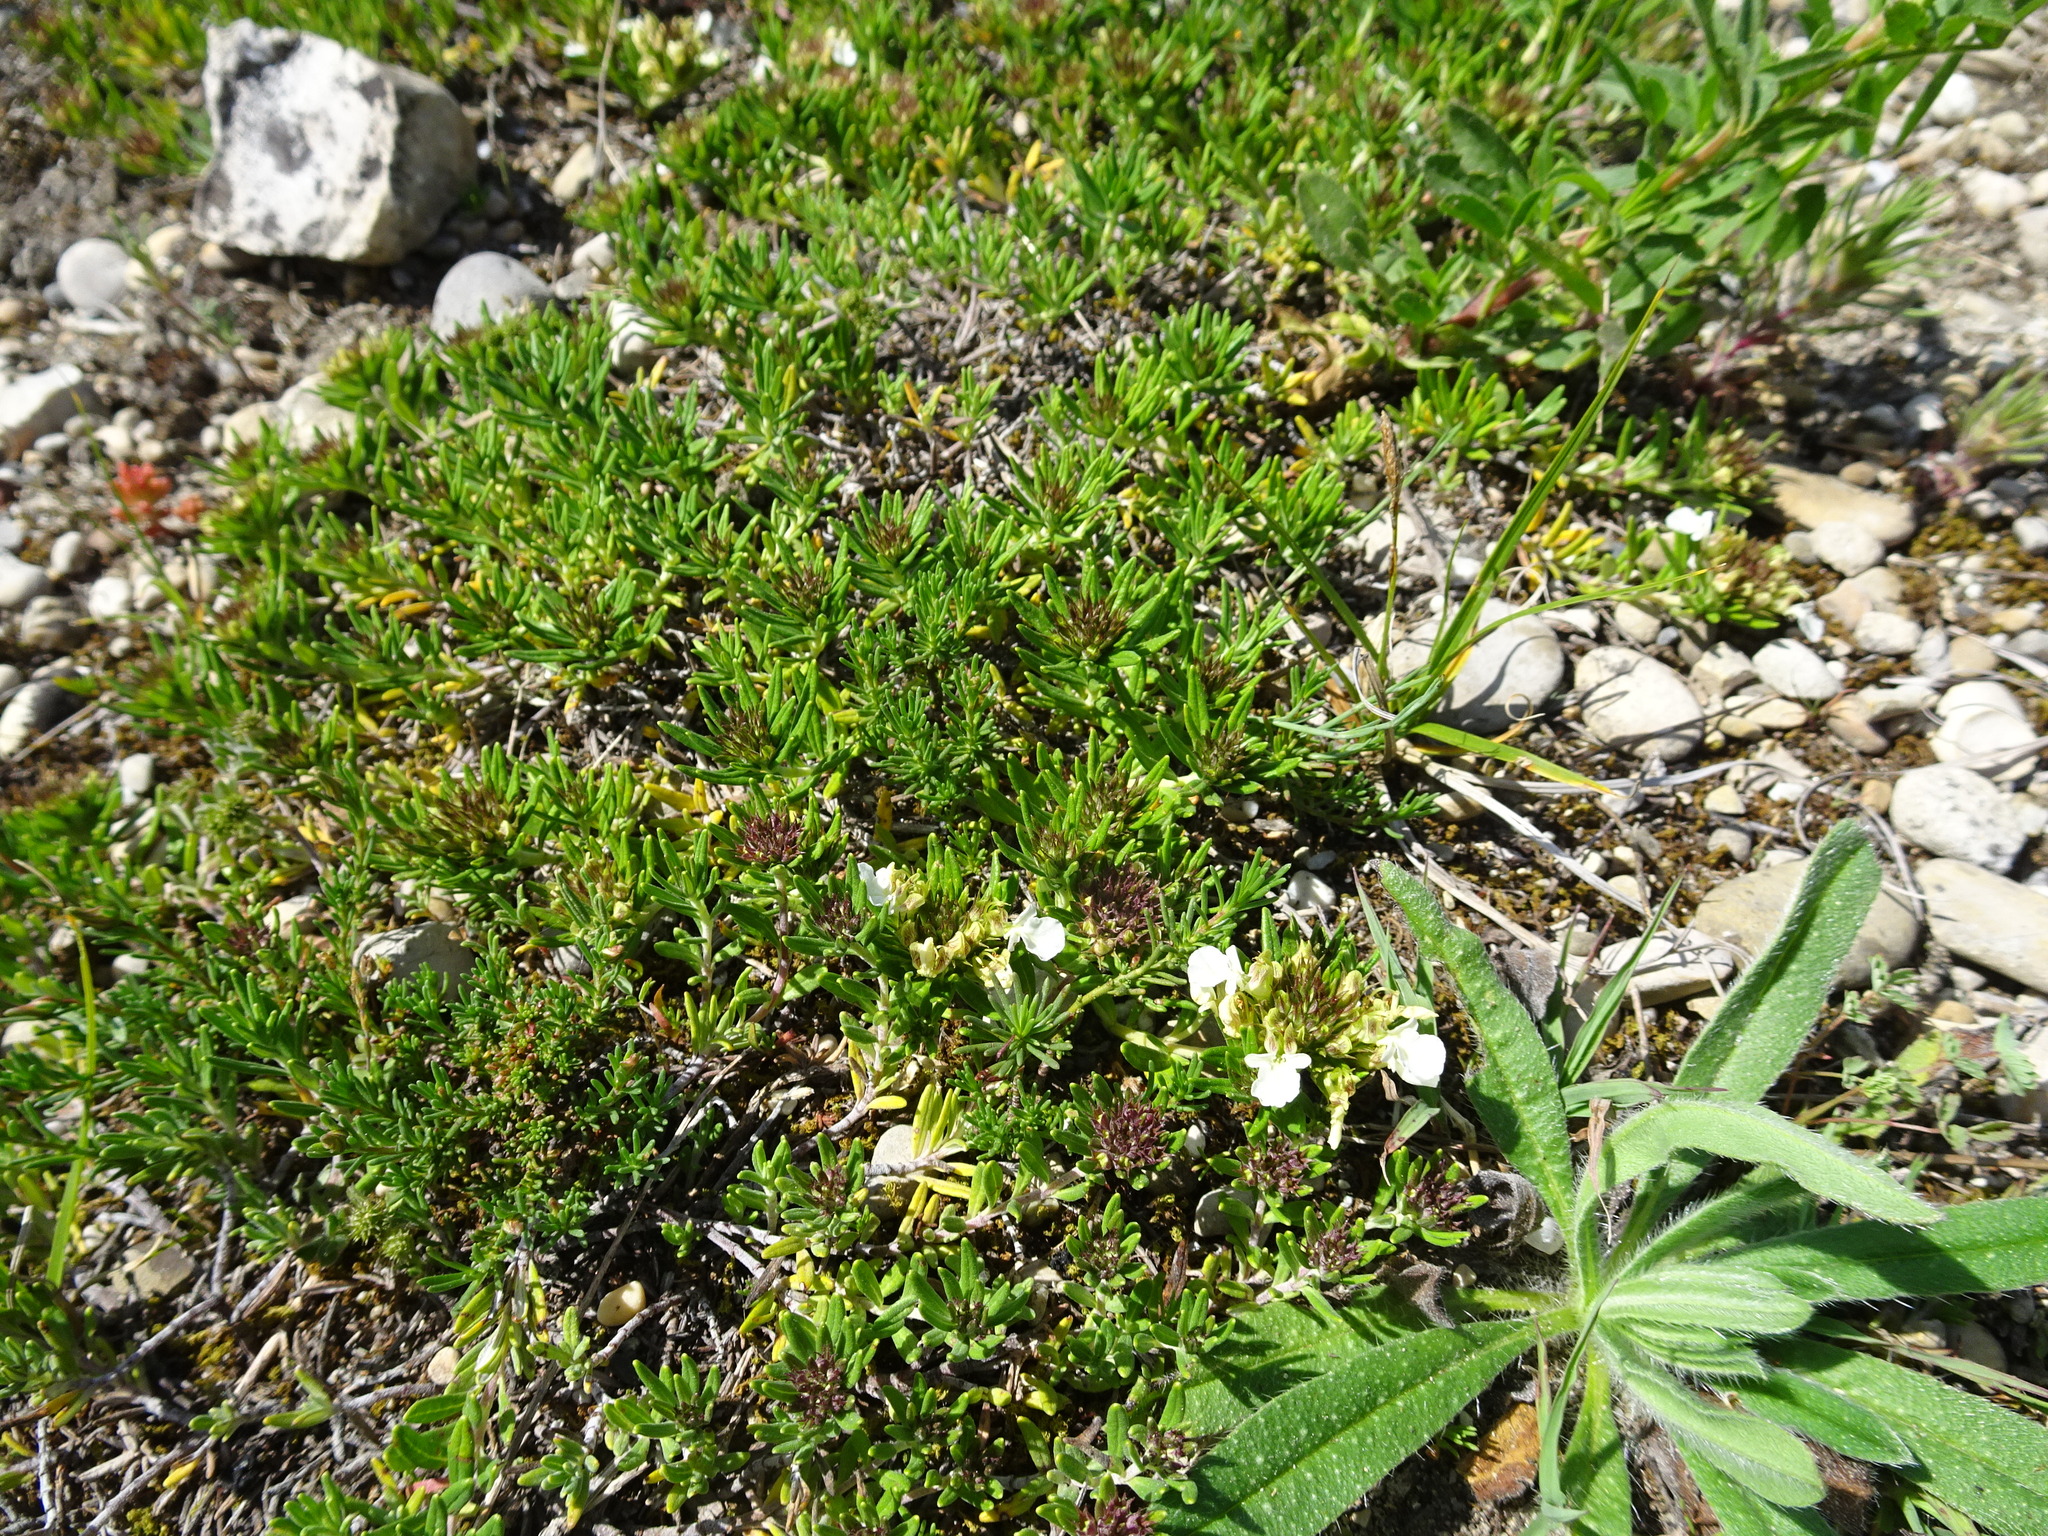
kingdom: Plantae
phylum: Tracheophyta
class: Magnoliopsida
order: Lamiales
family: Lamiaceae
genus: Teucrium
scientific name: Teucrium montanum
